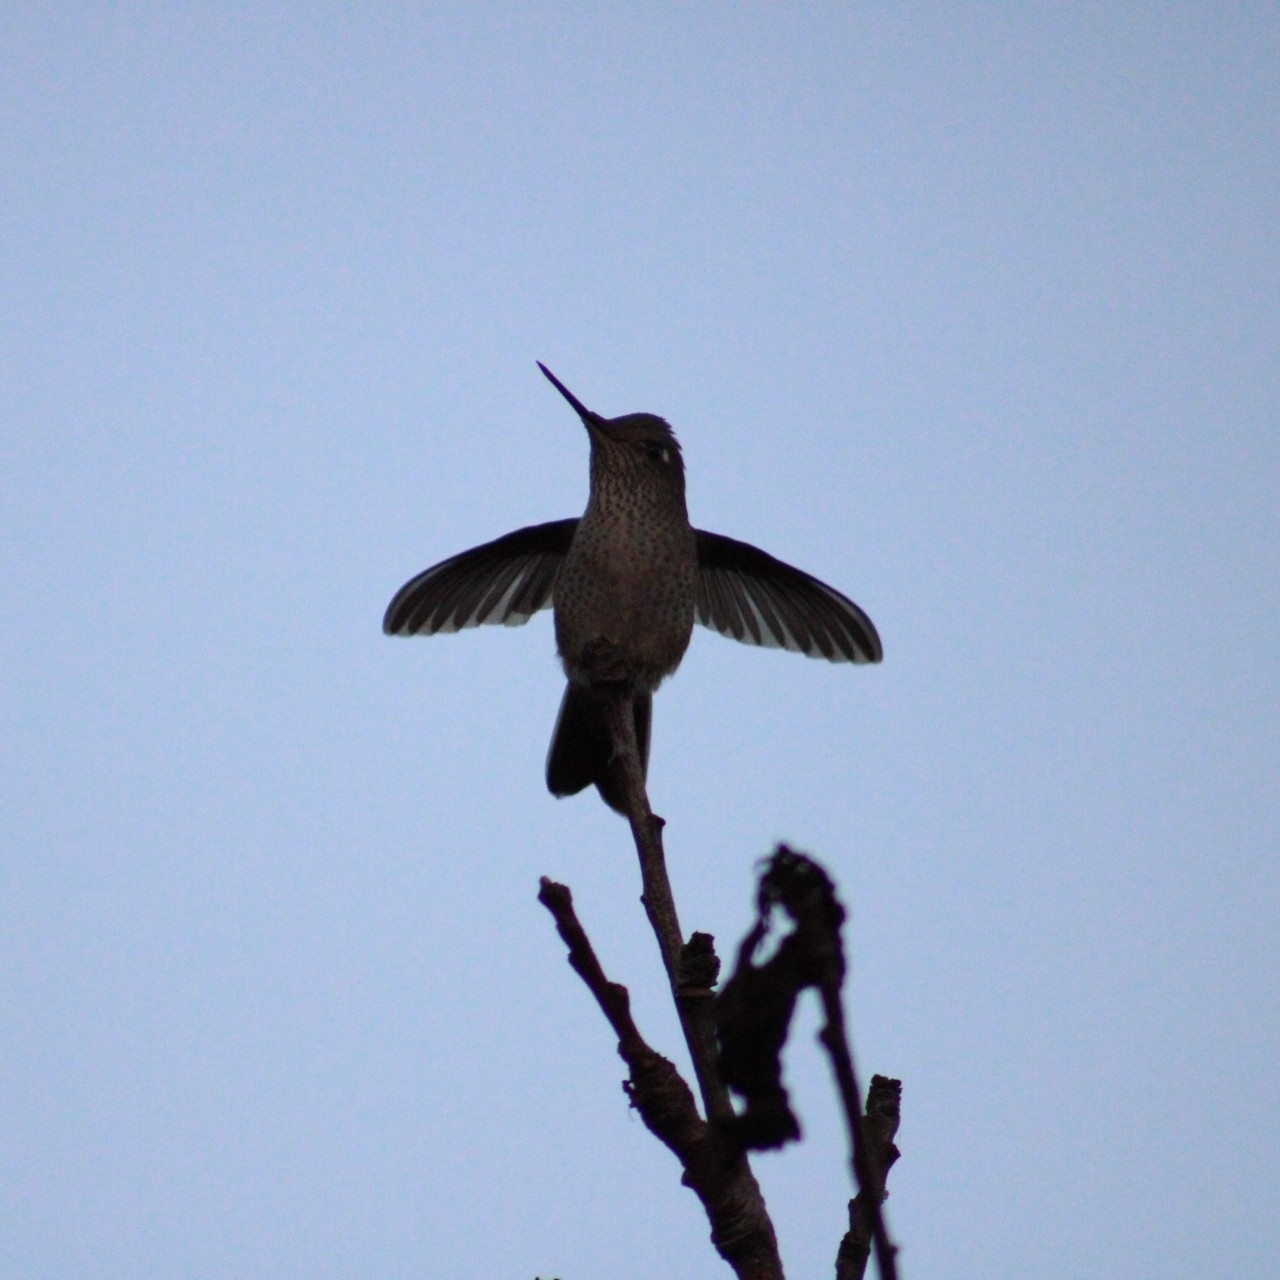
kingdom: Animalia
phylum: Chordata
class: Aves
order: Apodiformes
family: Trochilidae
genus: Sephanoides
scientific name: Sephanoides sephaniodes
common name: Green-backed firecrown
